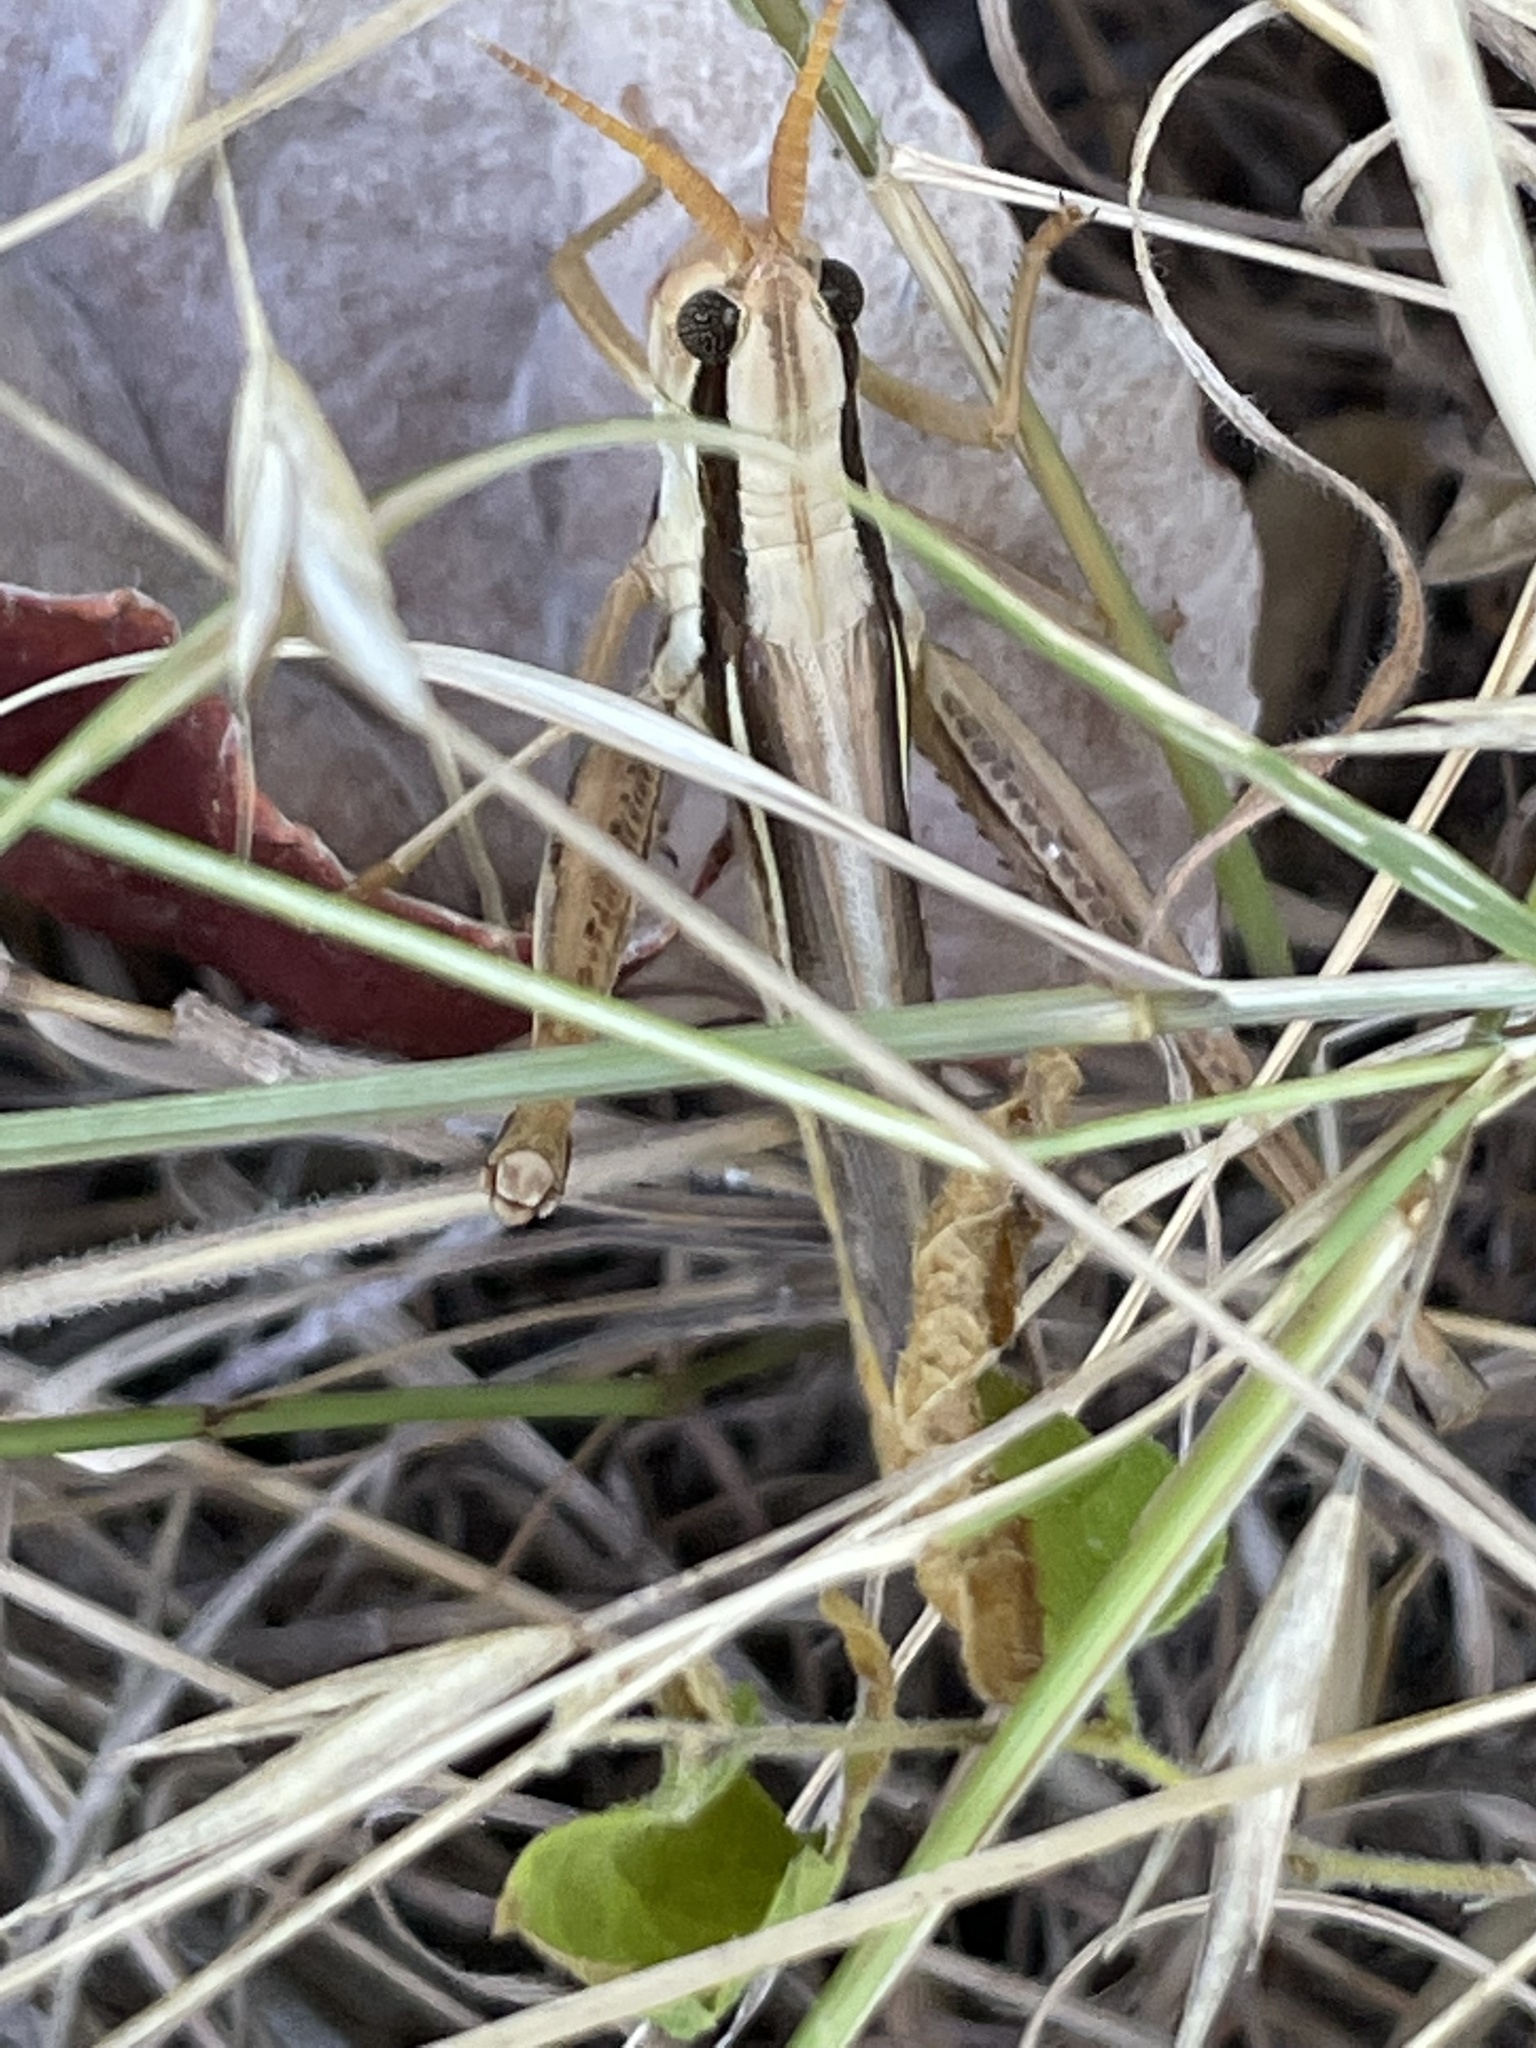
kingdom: Animalia
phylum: Arthropoda
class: Insecta
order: Orthoptera
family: Acrididae
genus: Mermiria
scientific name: Mermiria bivittata
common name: Two-striped mermiria grasshopper
